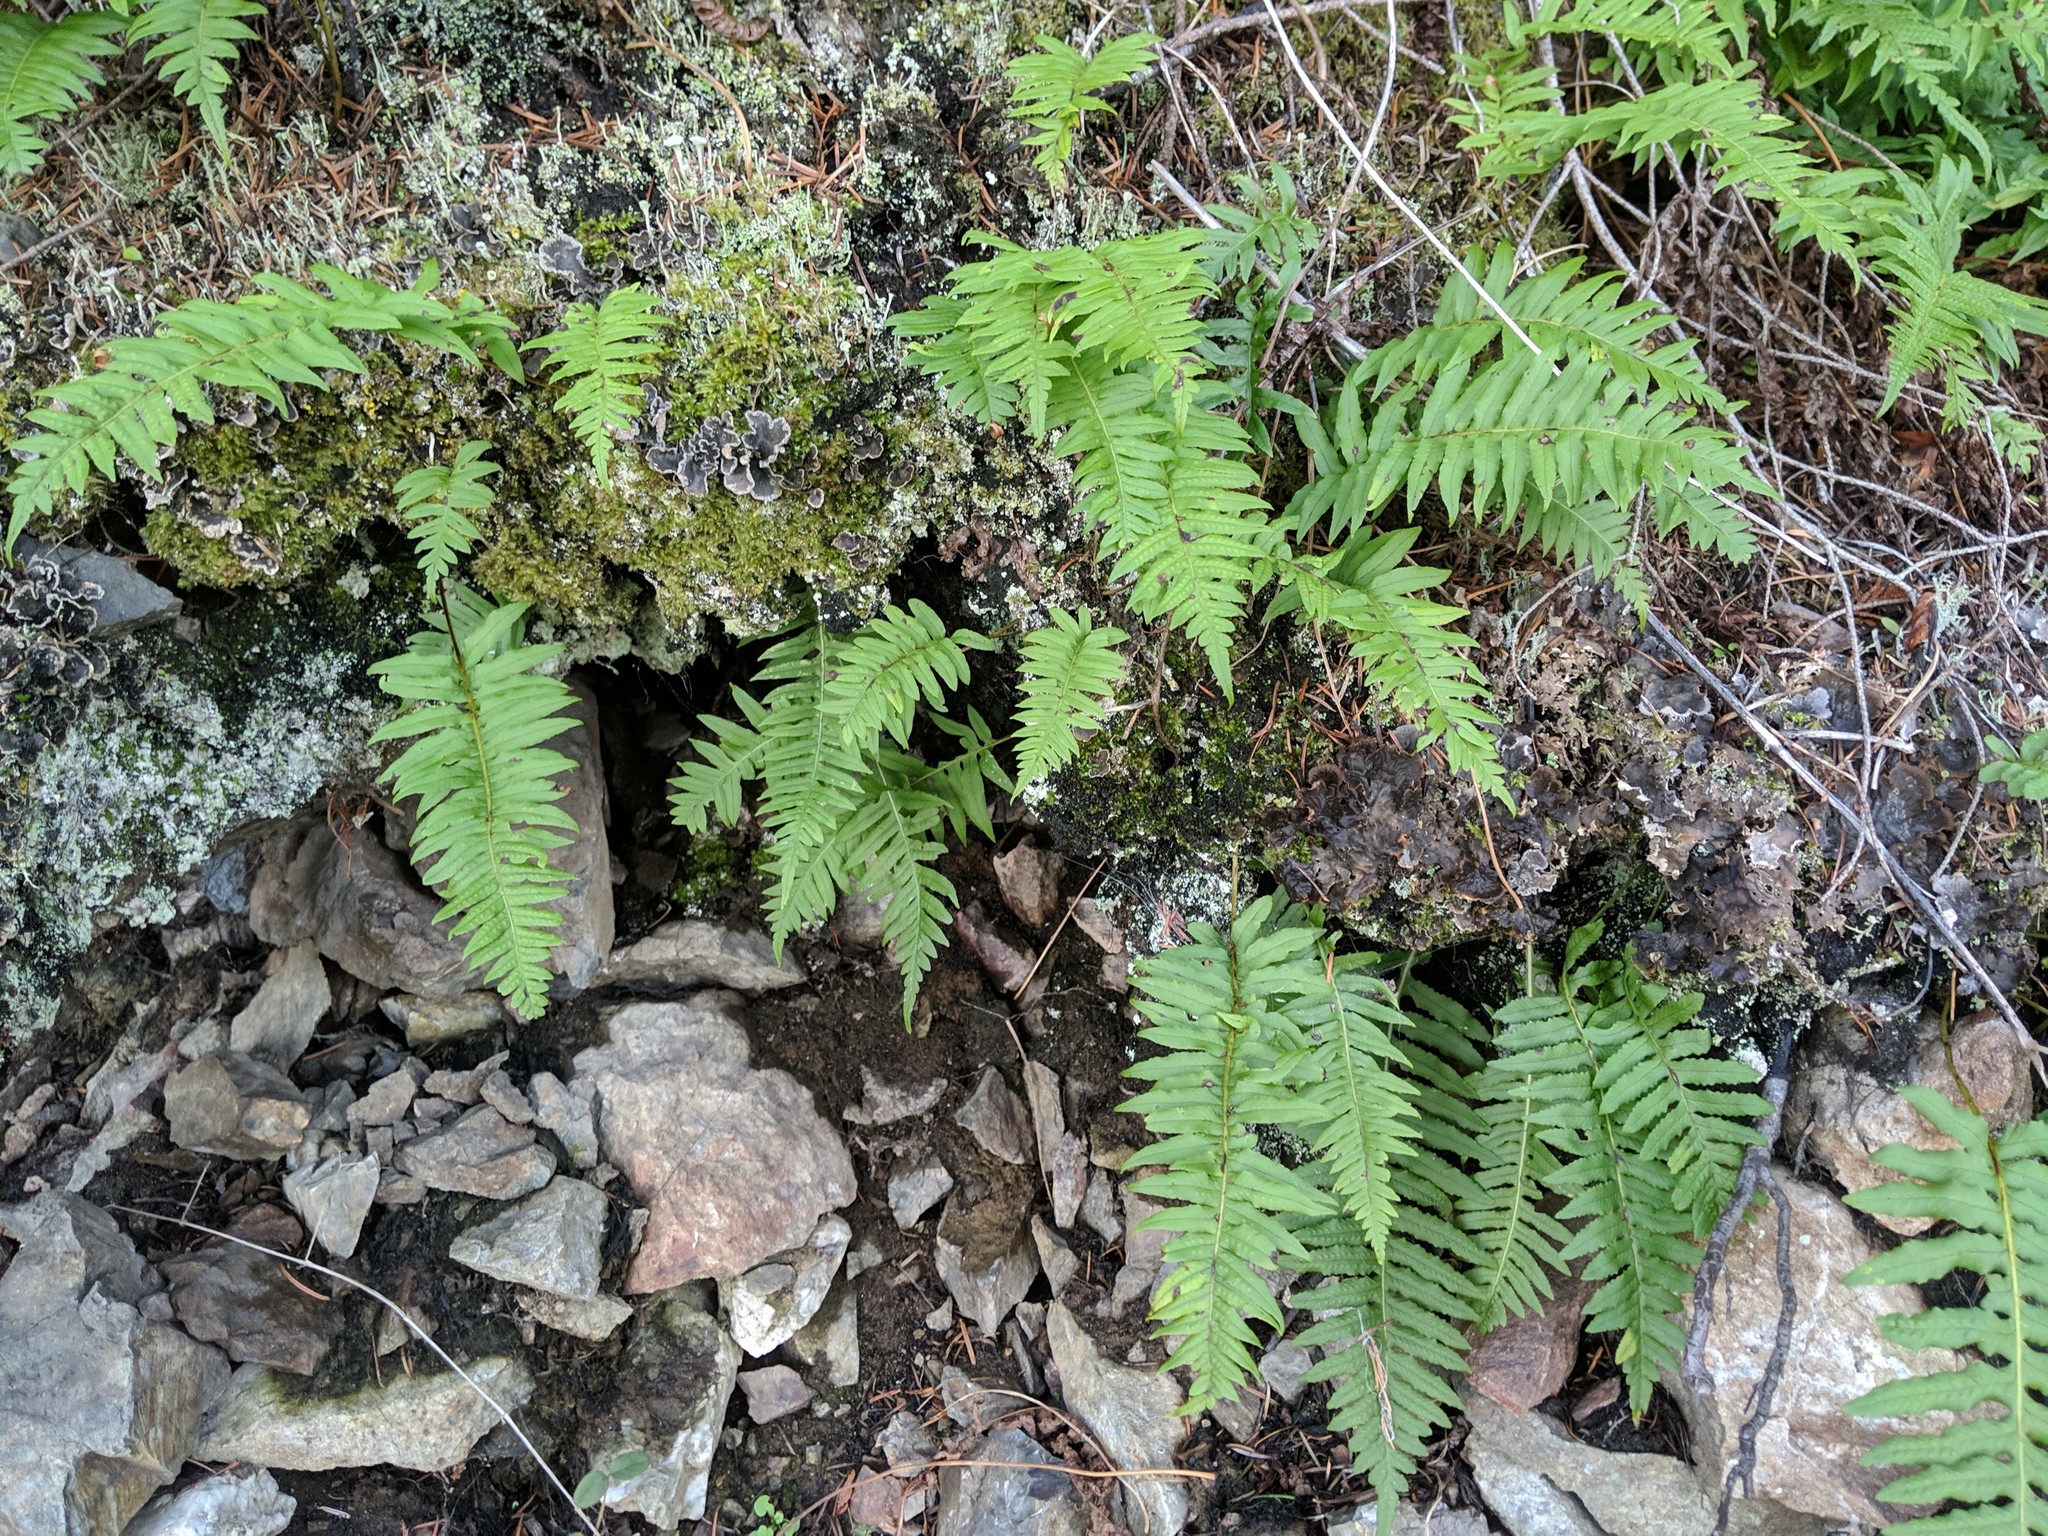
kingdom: Plantae
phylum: Tracheophyta
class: Polypodiopsida
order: Polypodiales
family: Polypodiaceae
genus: Polypodium
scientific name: Polypodium glycyrrhiza
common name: Licorice fern
